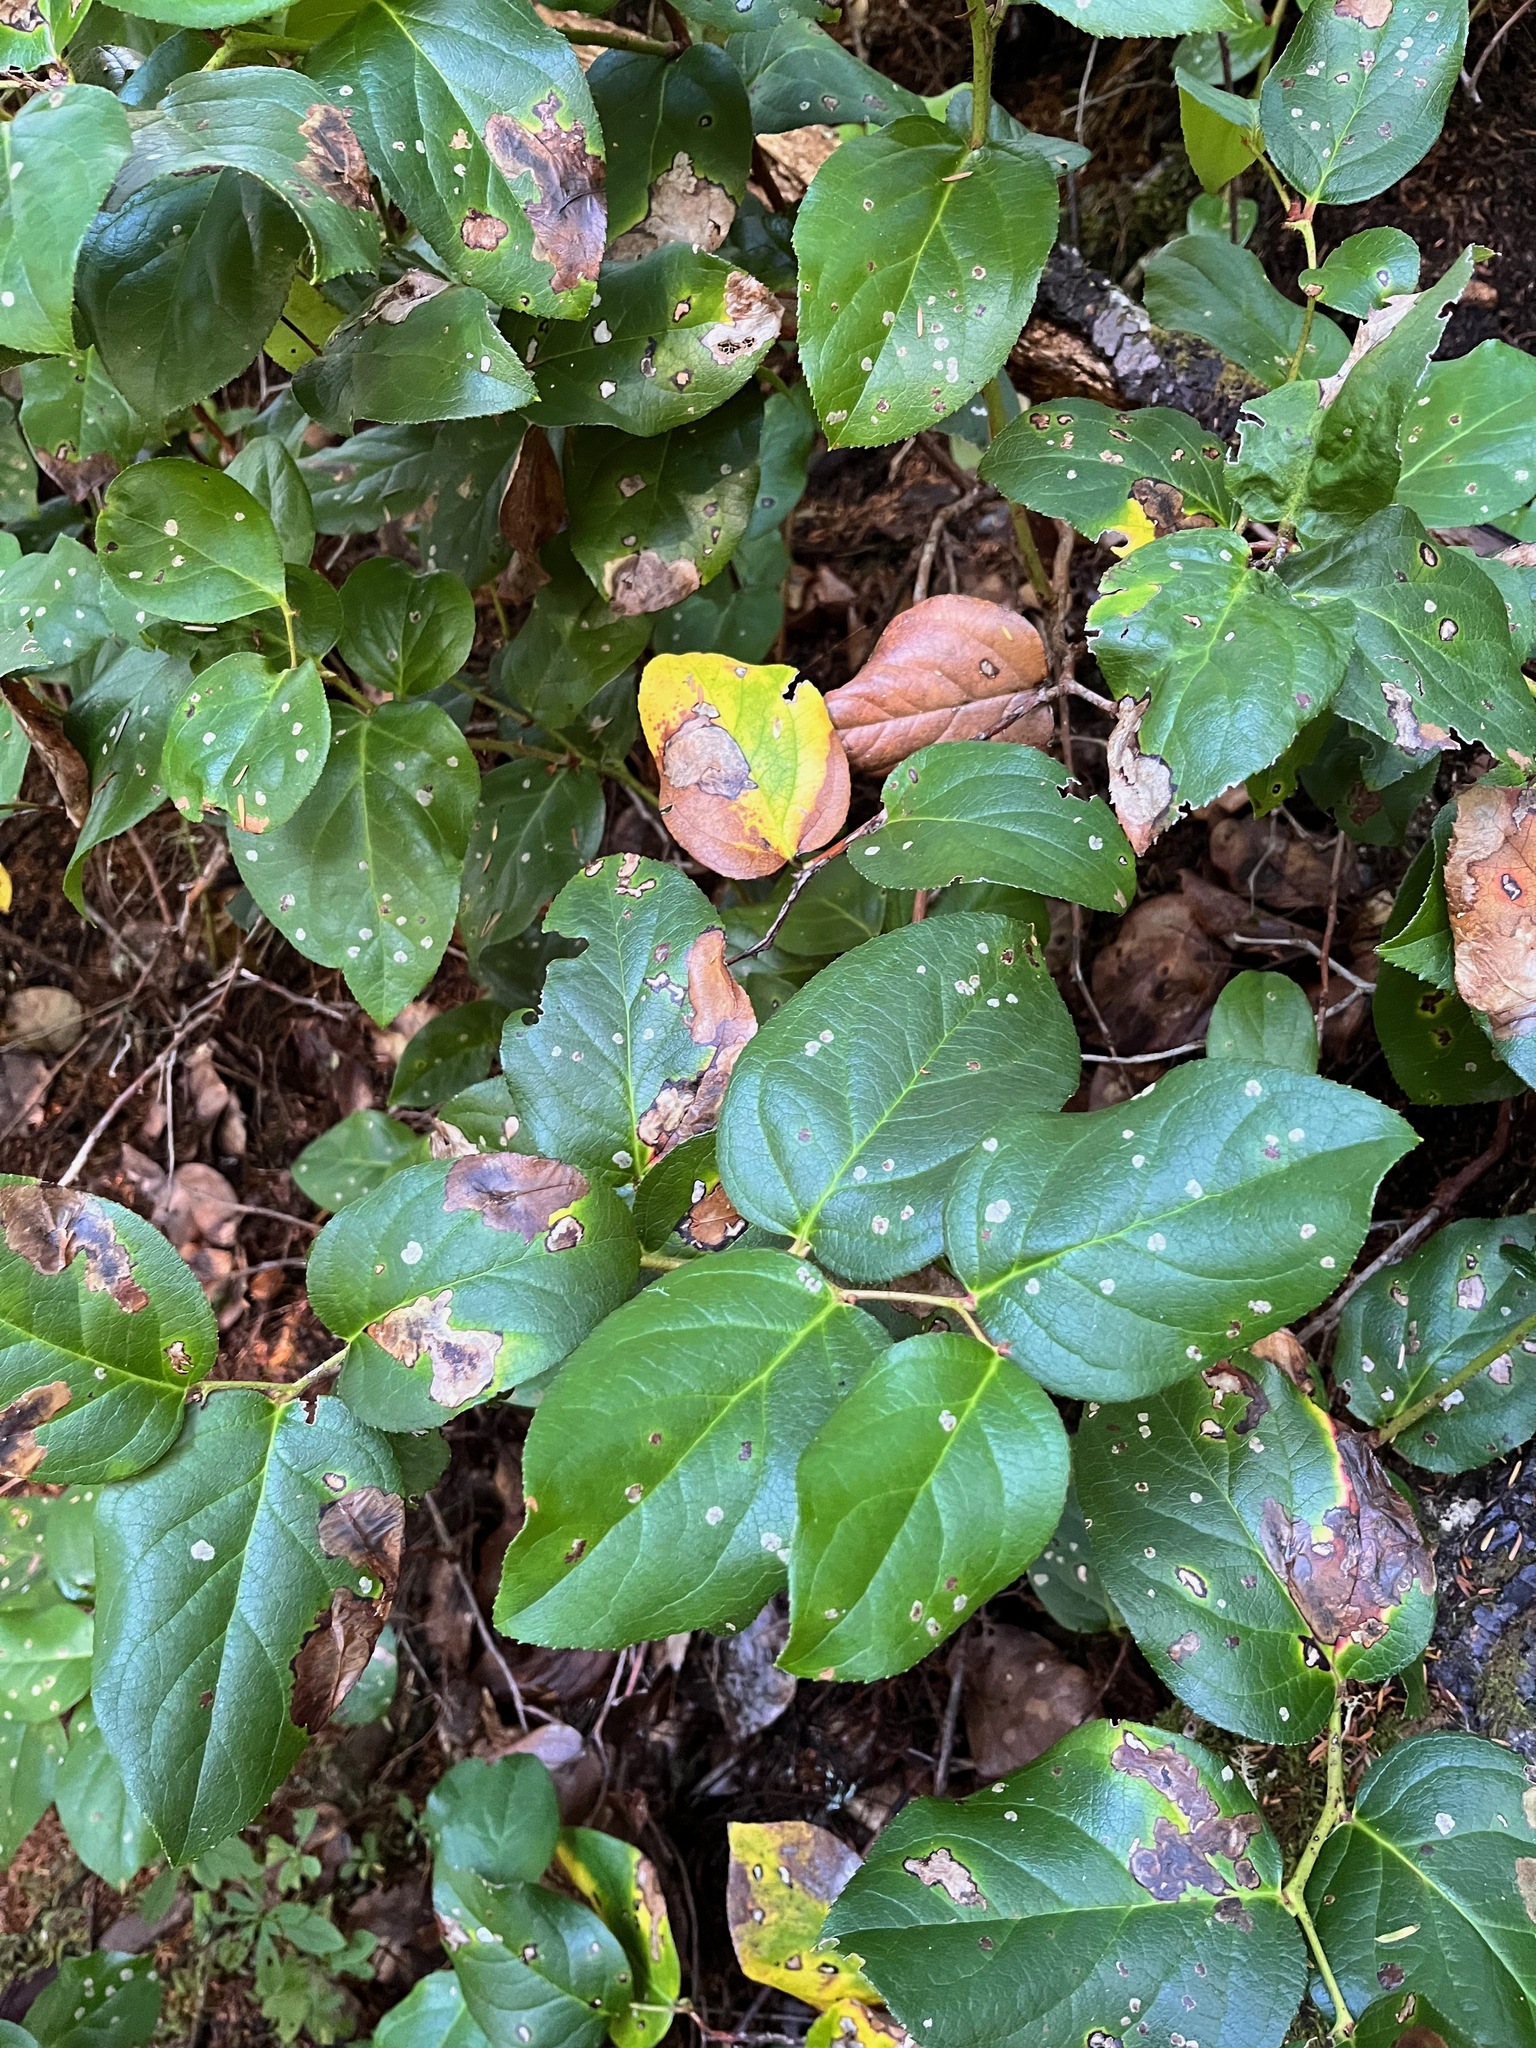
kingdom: Plantae
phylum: Tracheophyta
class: Magnoliopsida
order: Ericales
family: Ericaceae
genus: Gaultheria
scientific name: Gaultheria shallon
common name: Shallon
